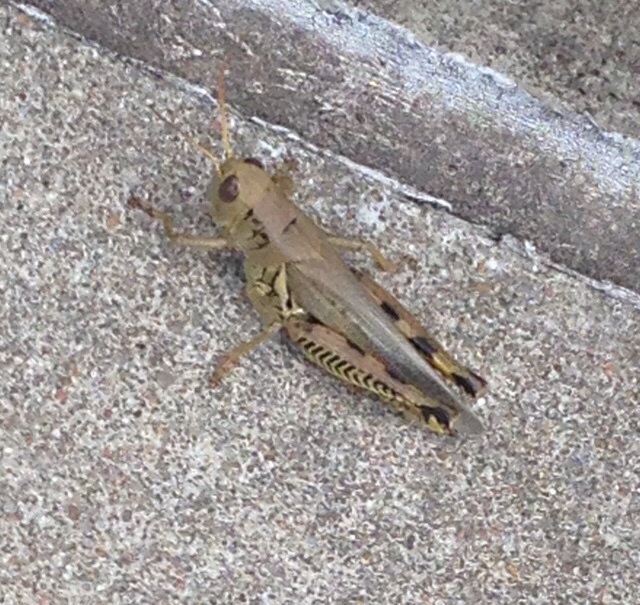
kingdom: Animalia
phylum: Arthropoda
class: Insecta
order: Orthoptera
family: Acrididae
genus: Melanoplus
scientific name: Melanoplus differentialis
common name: Differential grasshopper
